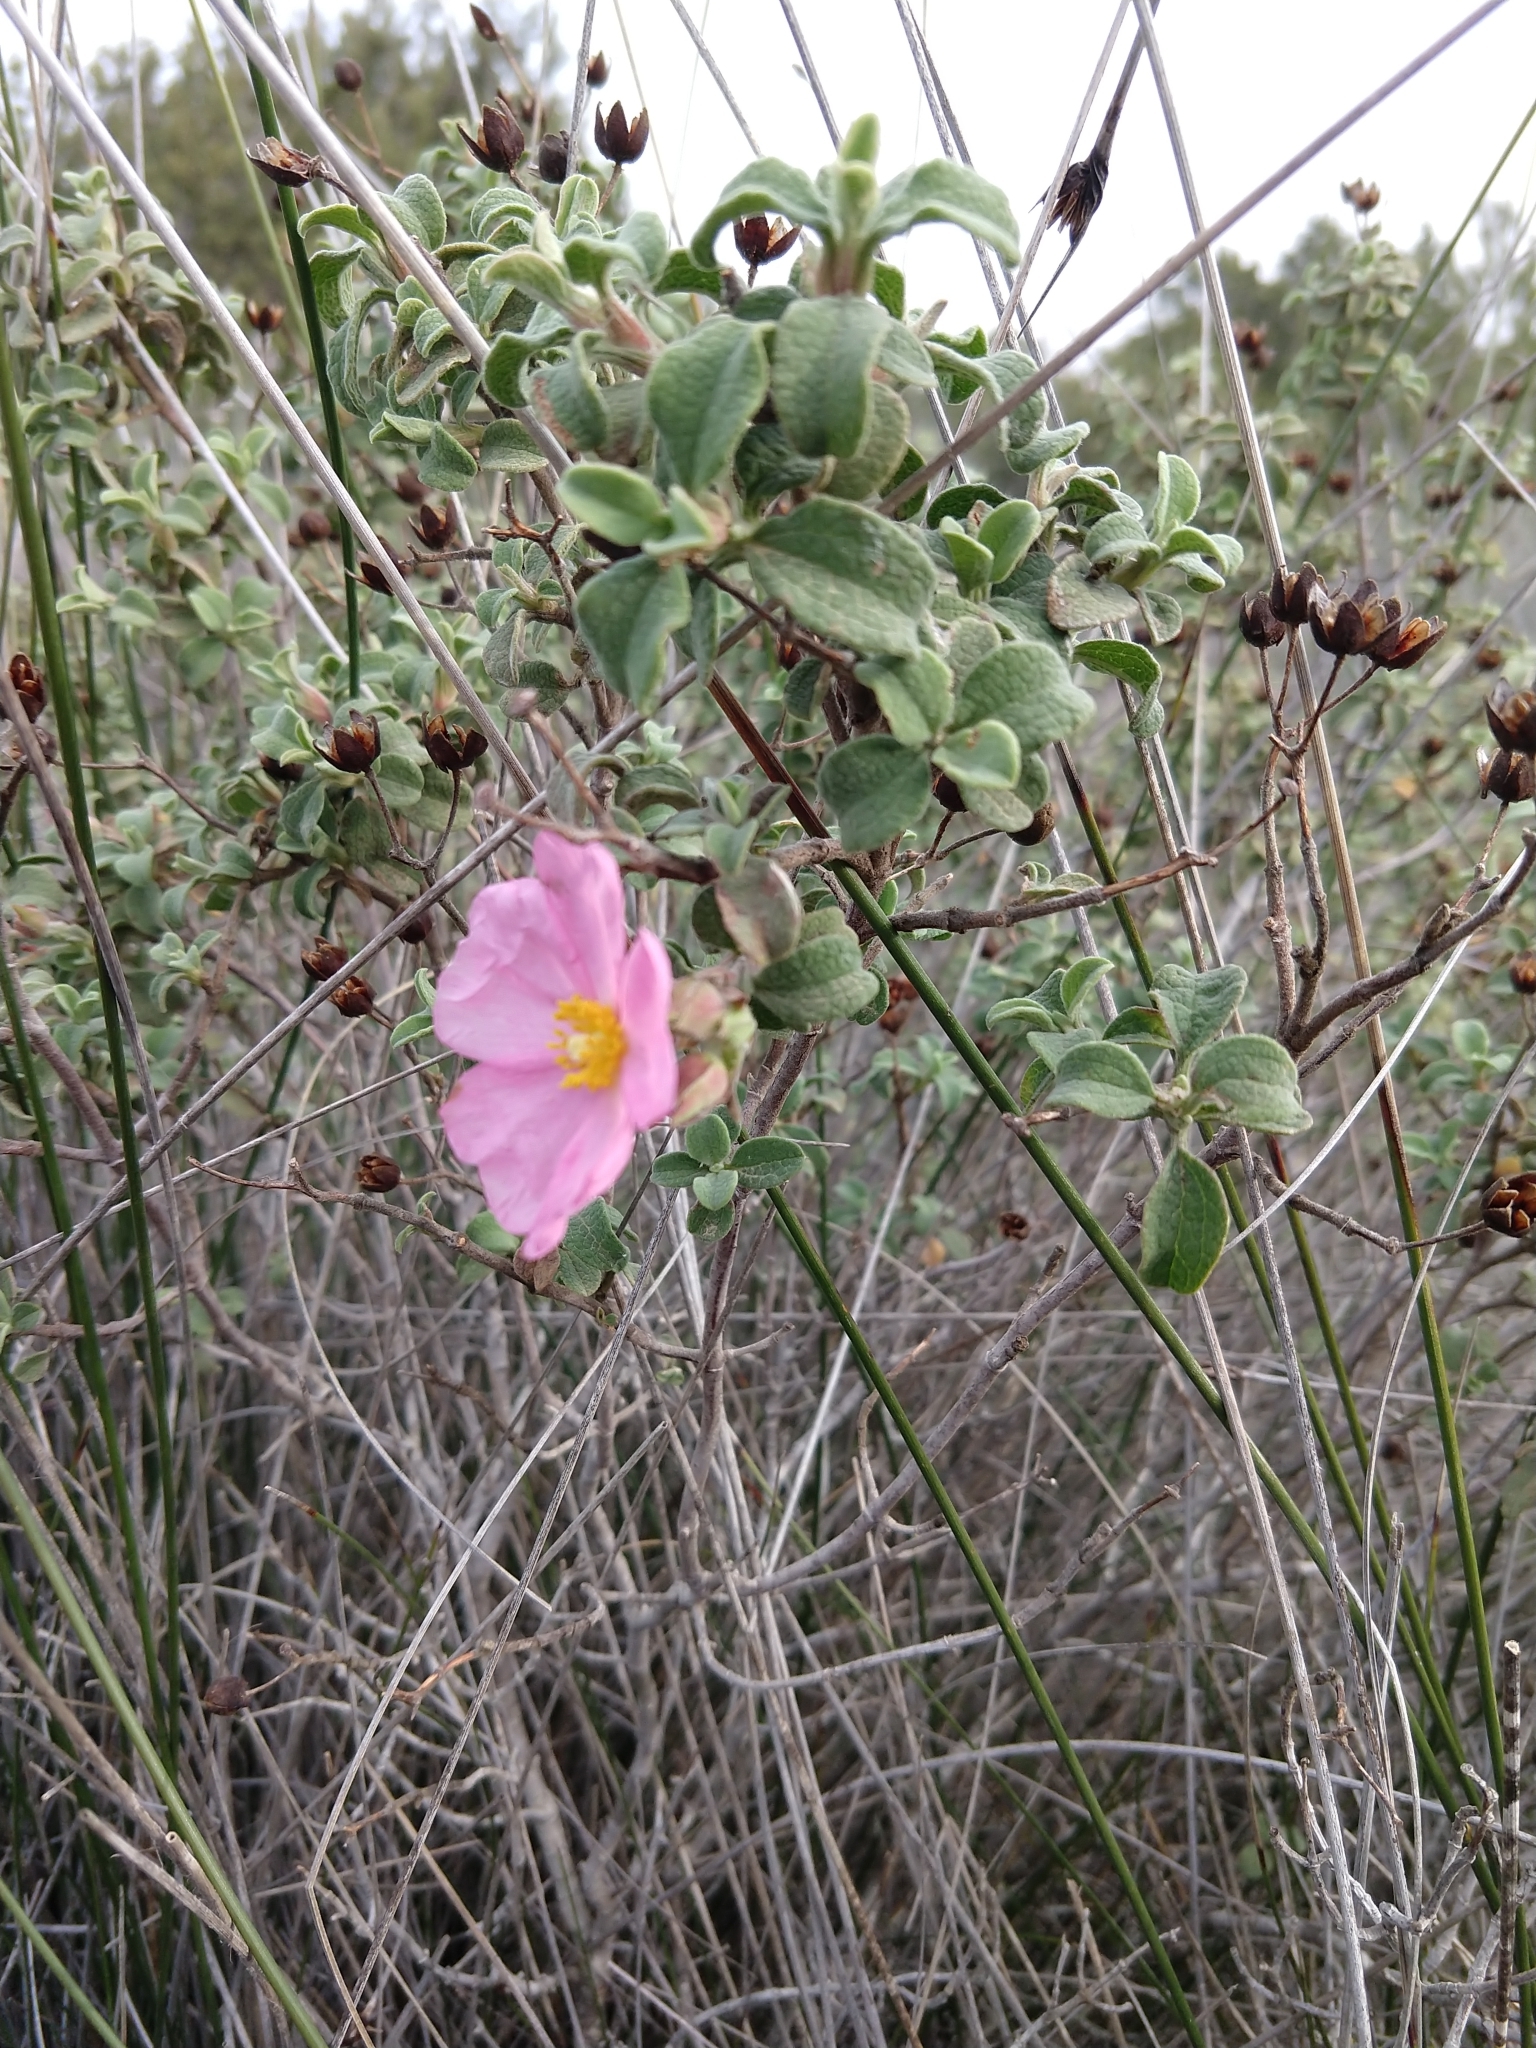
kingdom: Plantae
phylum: Tracheophyta
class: Magnoliopsida
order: Malvales
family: Cistaceae
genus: Cistus
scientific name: Cistus parviflorus
